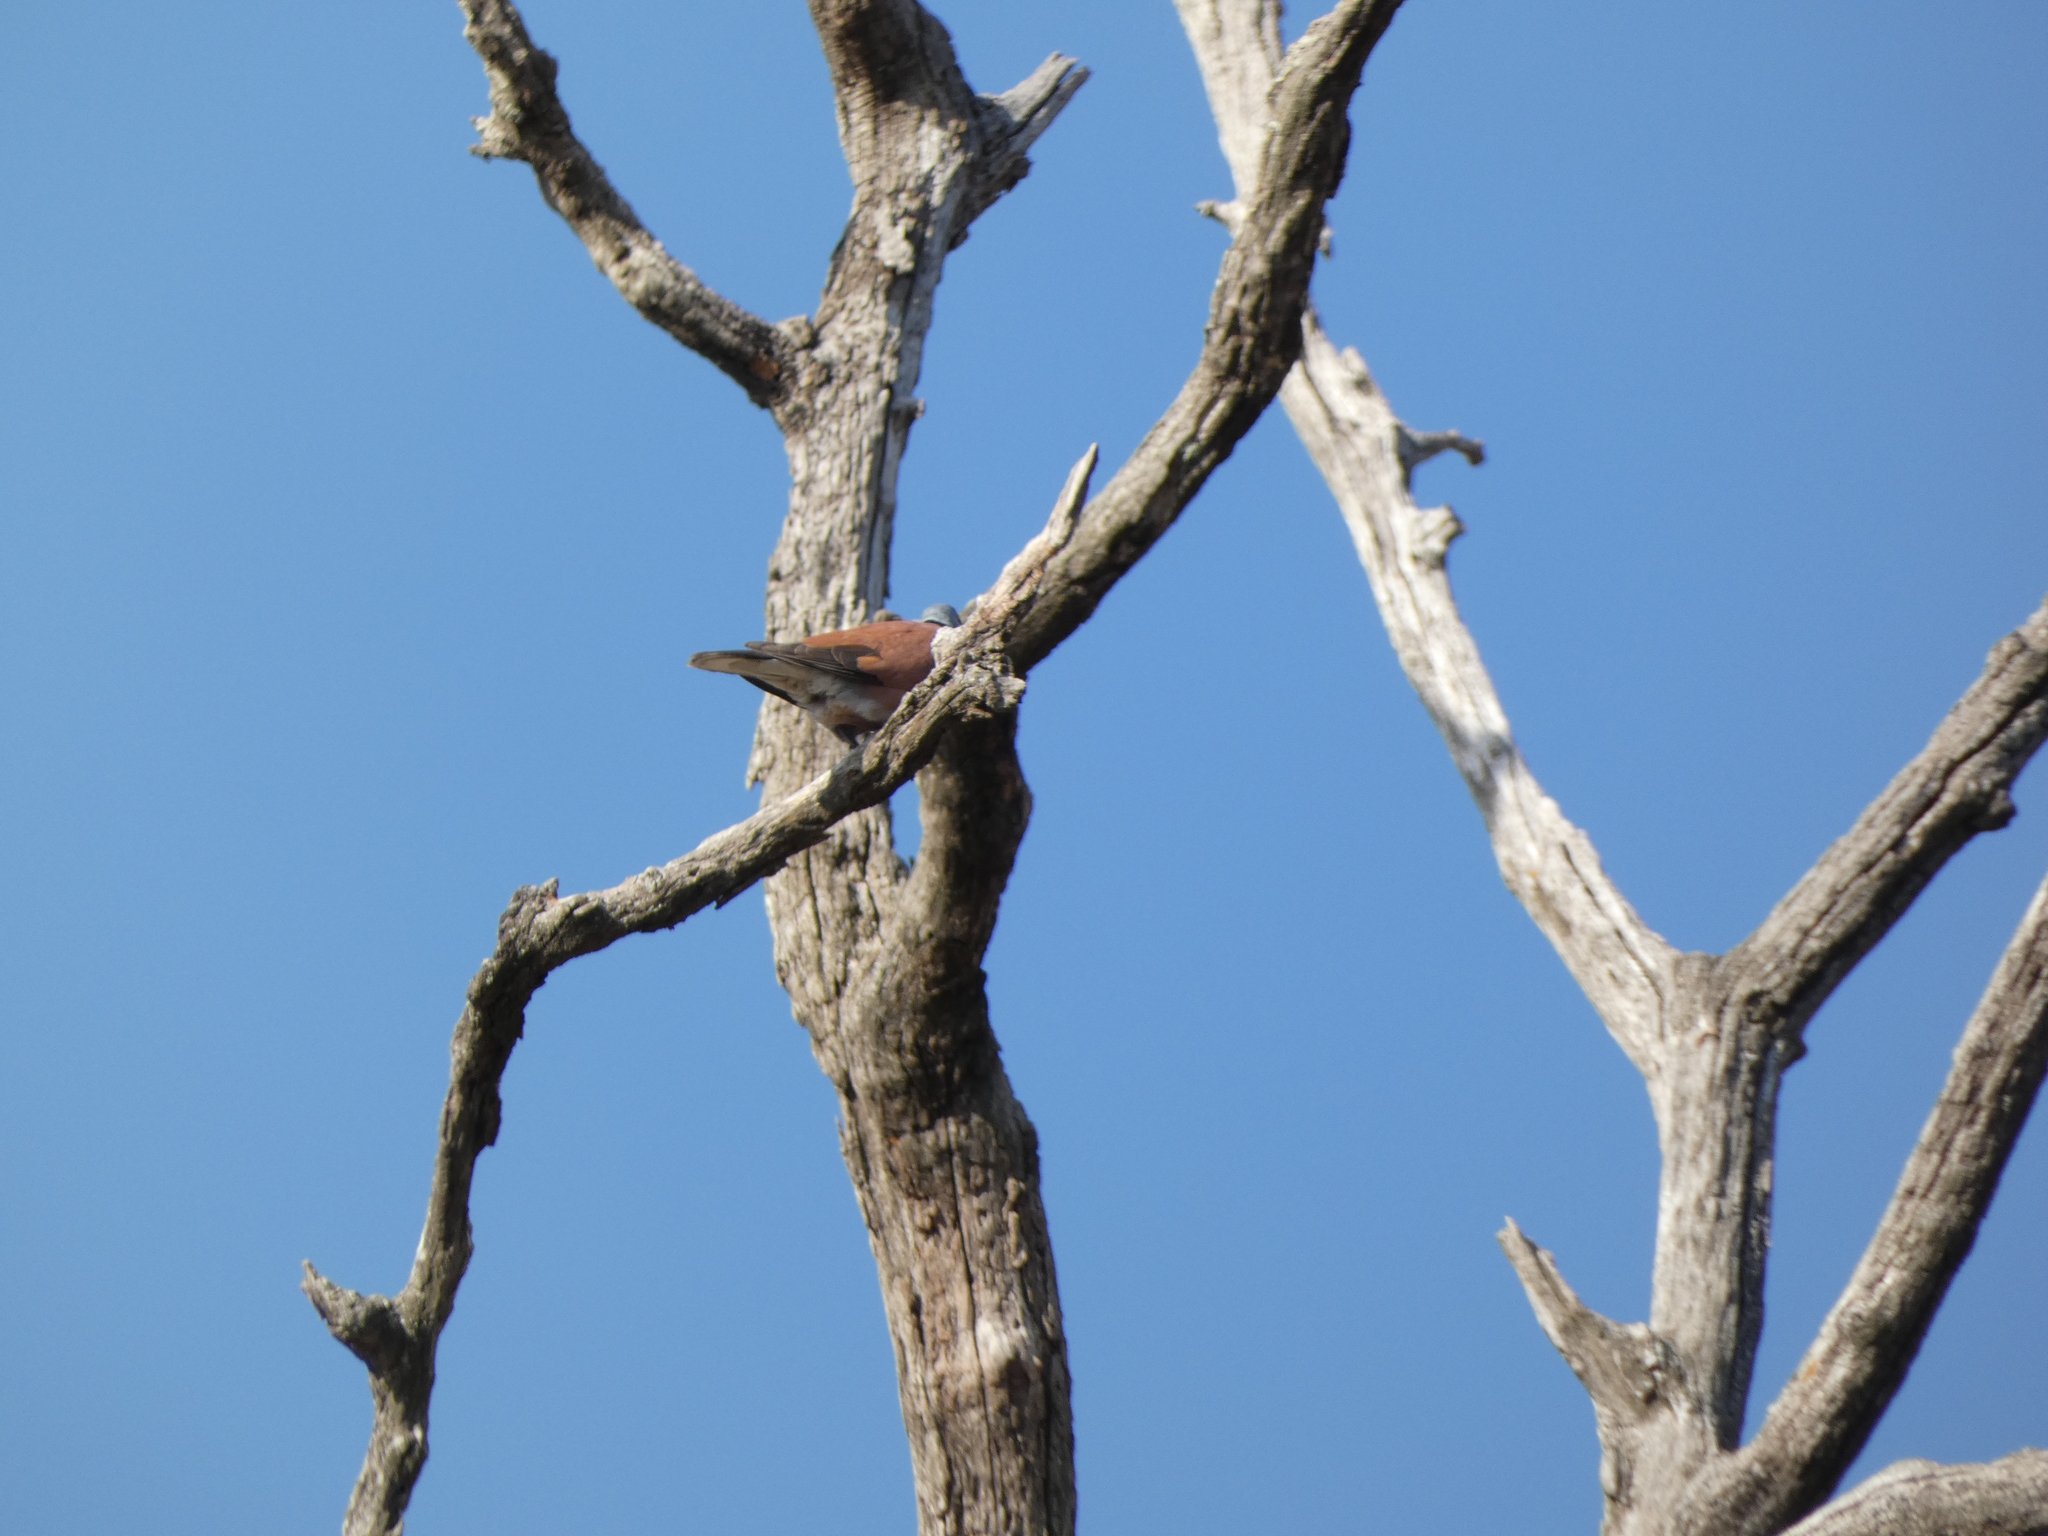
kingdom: Animalia
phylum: Chordata
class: Aves
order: Columbiformes
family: Columbidae
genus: Streptopelia
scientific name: Streptopelia tranquebarica
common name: Red turtle dove
